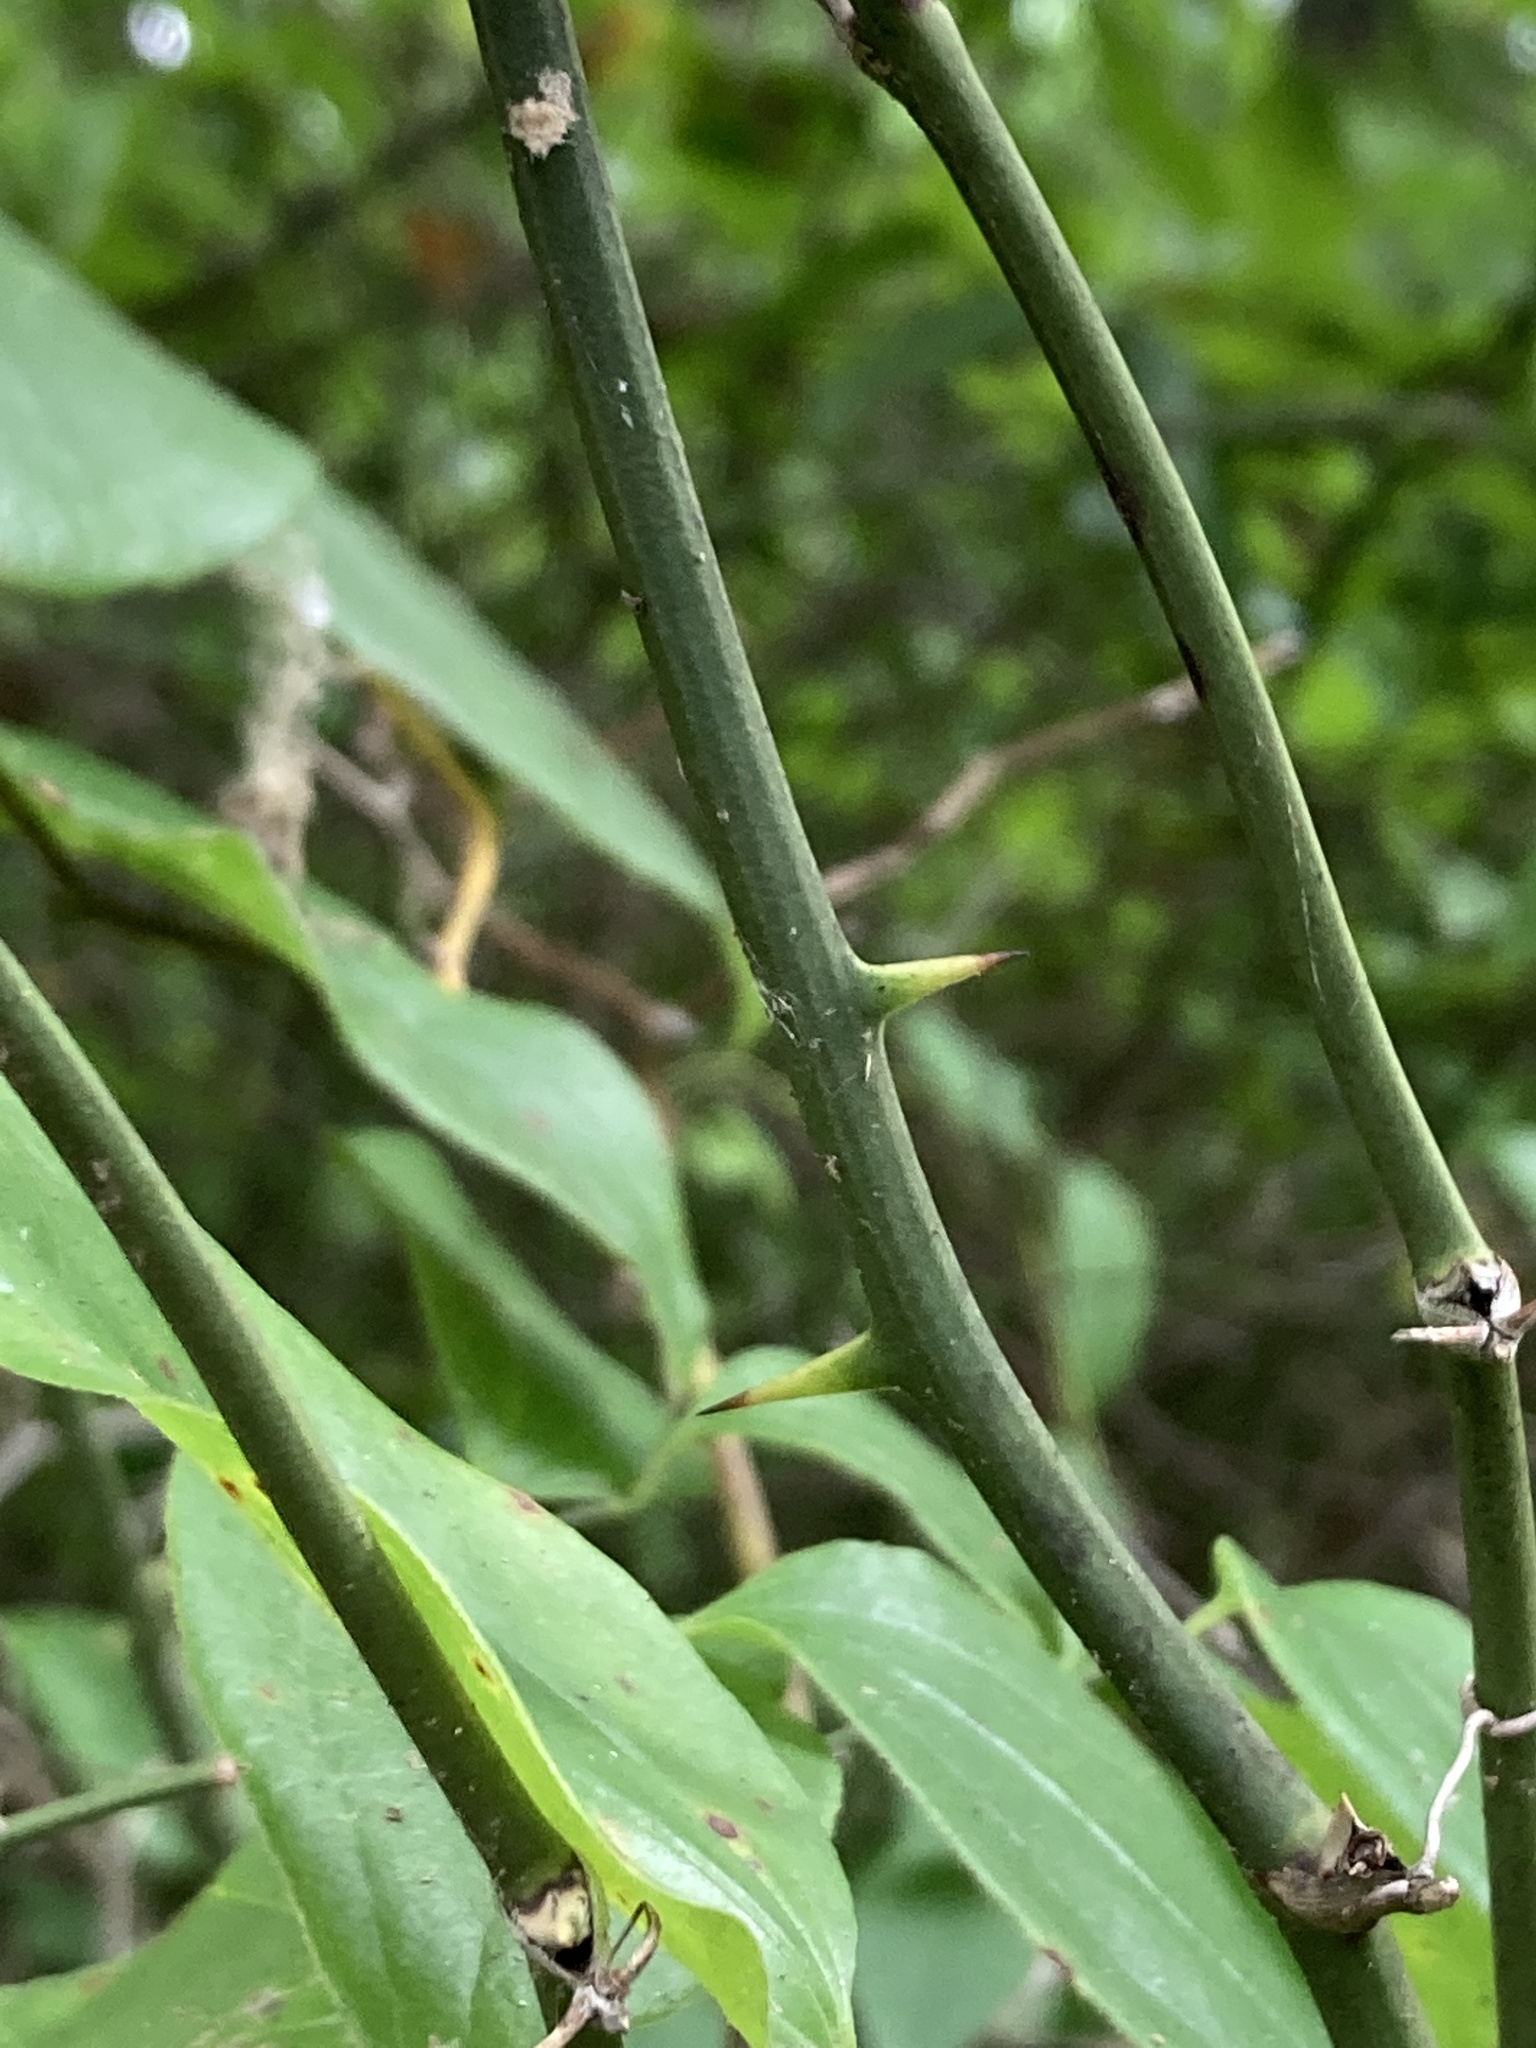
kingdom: Plantae
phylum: Tracheophyta
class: Liliopsida
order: Liliales
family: Smilacaceae
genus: Smilax
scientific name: Smilax rotundifolia
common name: Bullbriar
